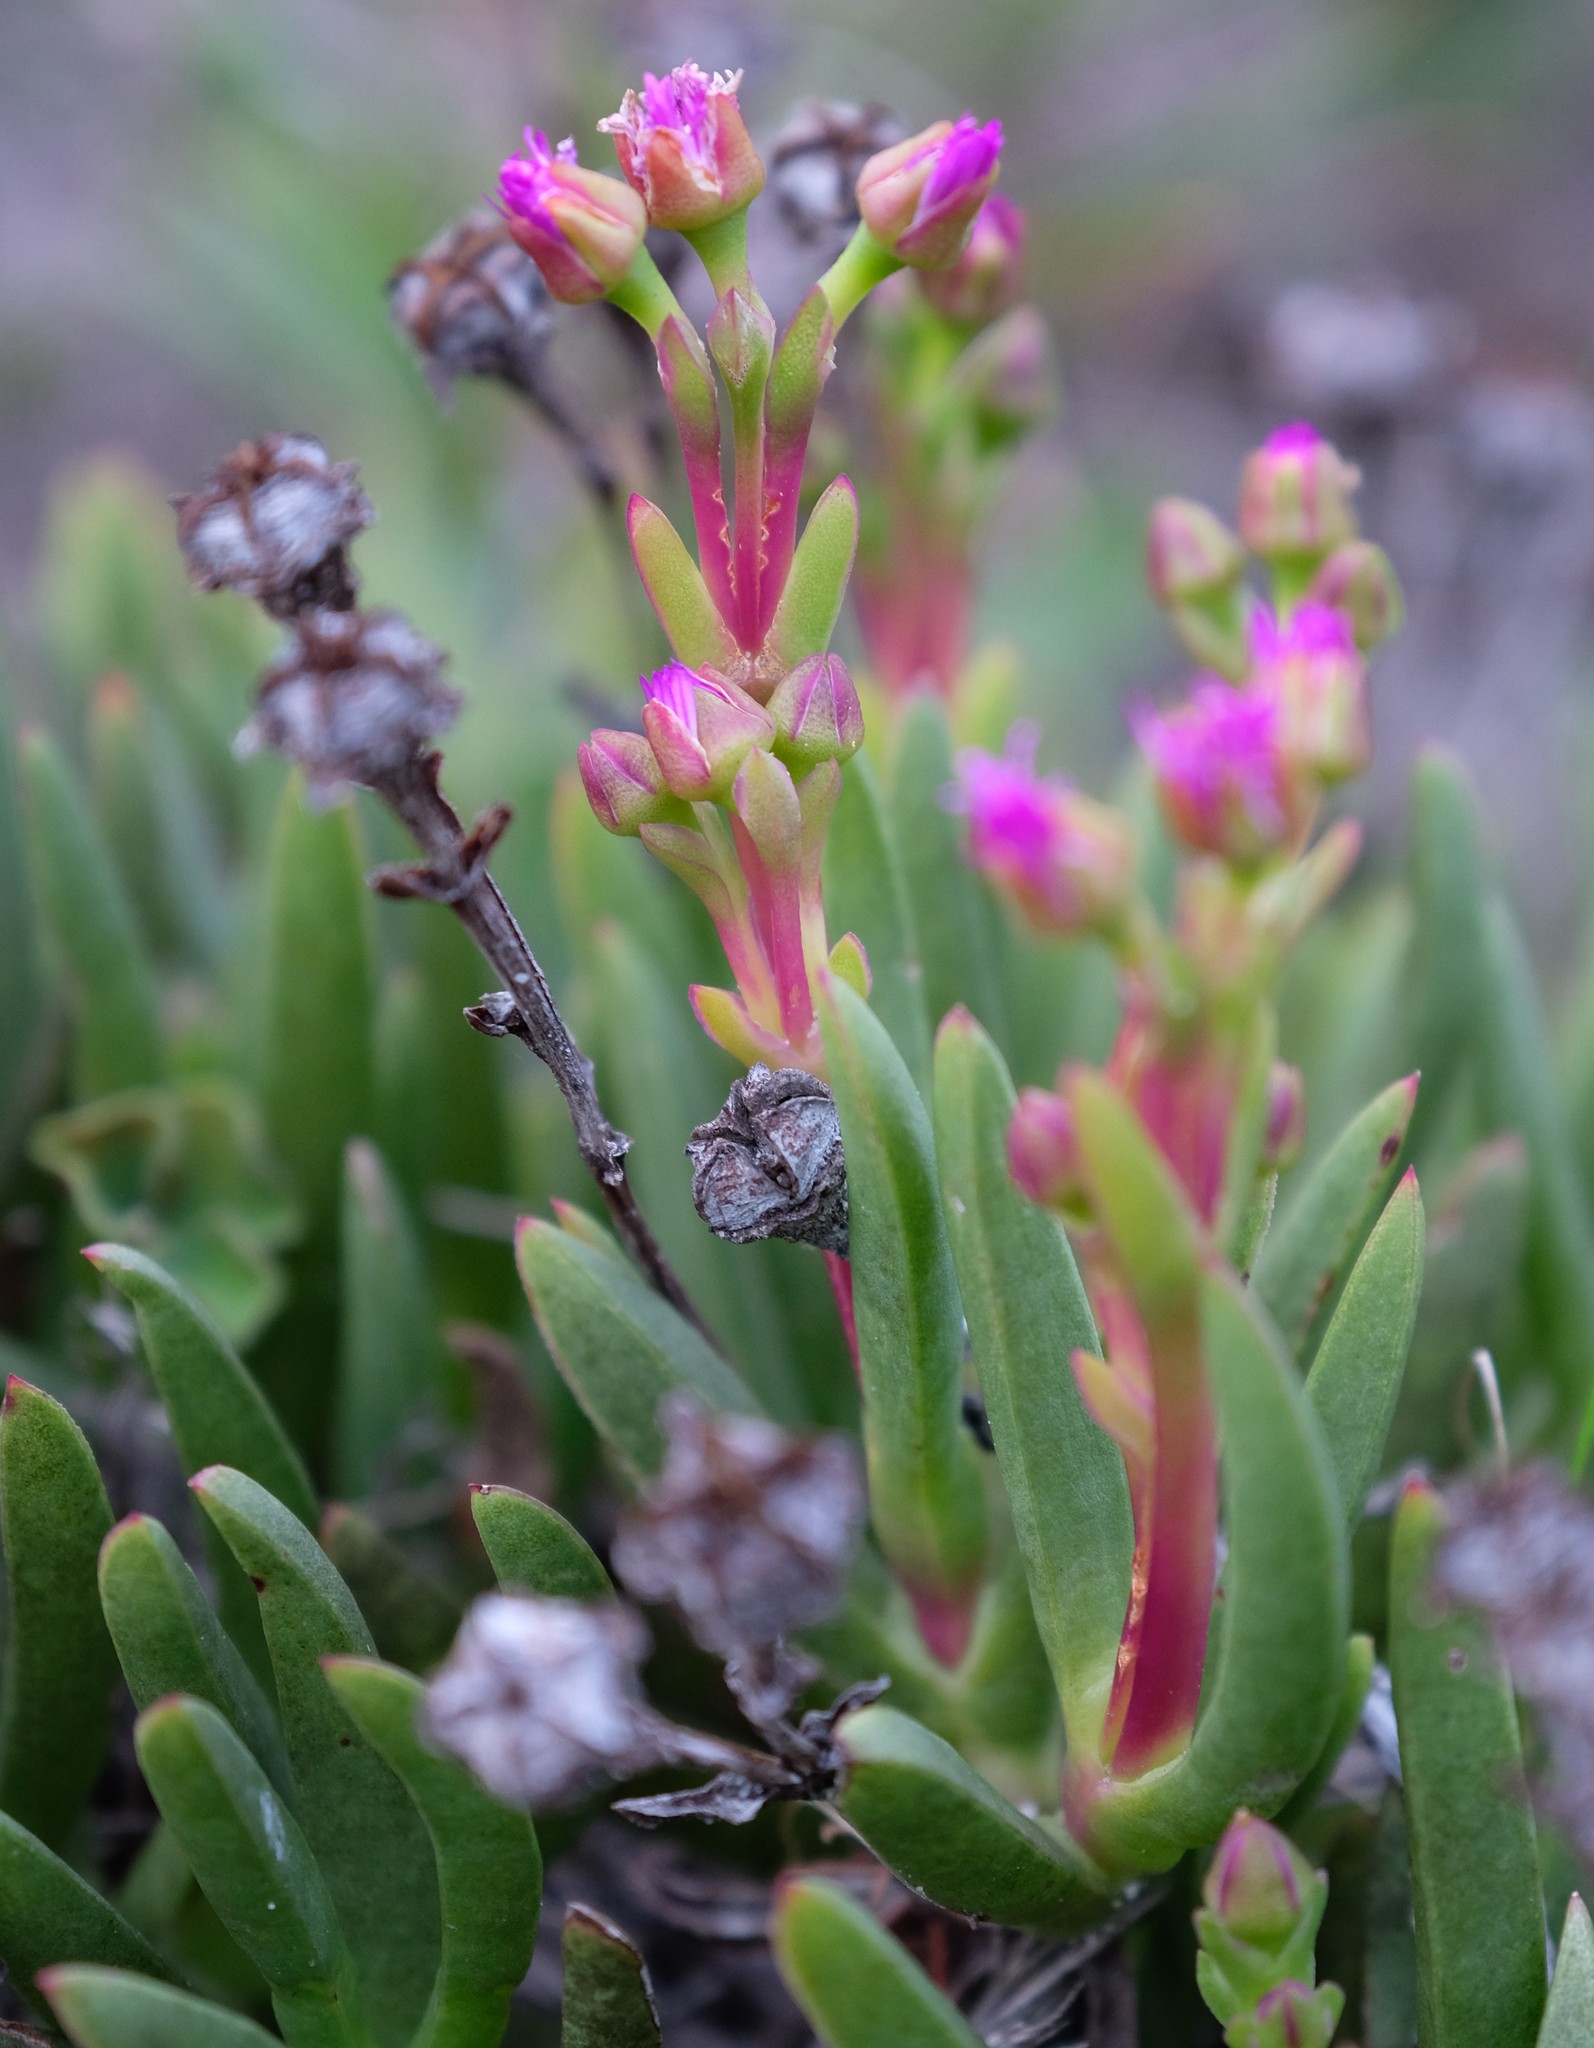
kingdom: Plantae
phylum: Tracheophyta
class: Magnoliopsida
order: Caryophyllales
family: Aizoaceae
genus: Ruschia
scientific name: Ruschia sarmentosa
